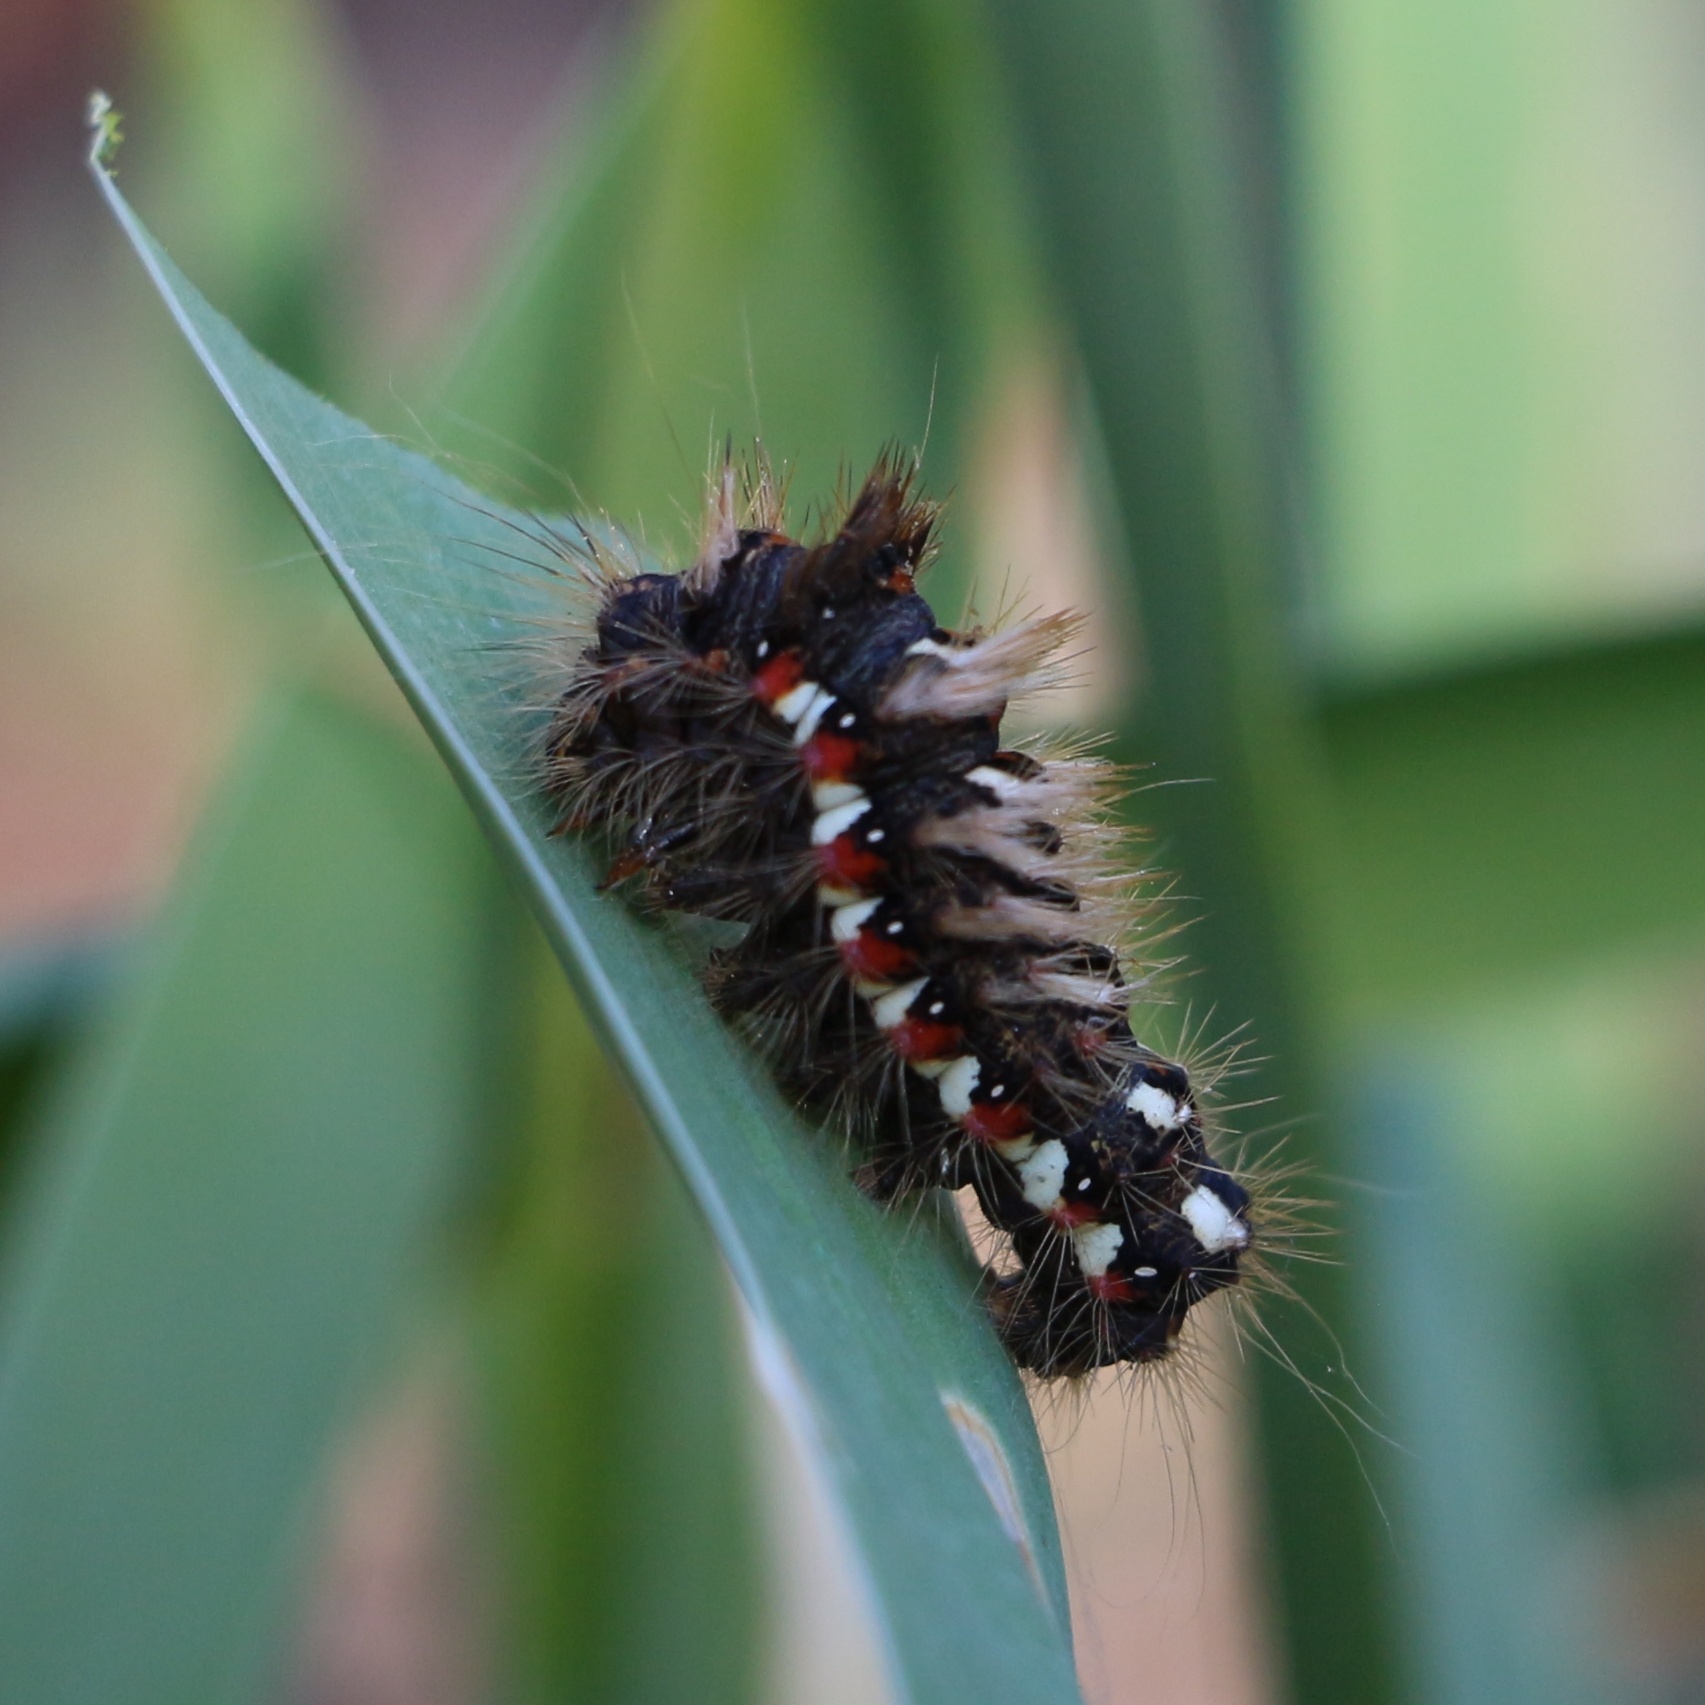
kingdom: Animalia
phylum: Arthropoda
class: Insecta
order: Lepidoptera
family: Noctuidae
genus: Acronicta
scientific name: Acronicta rumicis
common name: Knot grass
